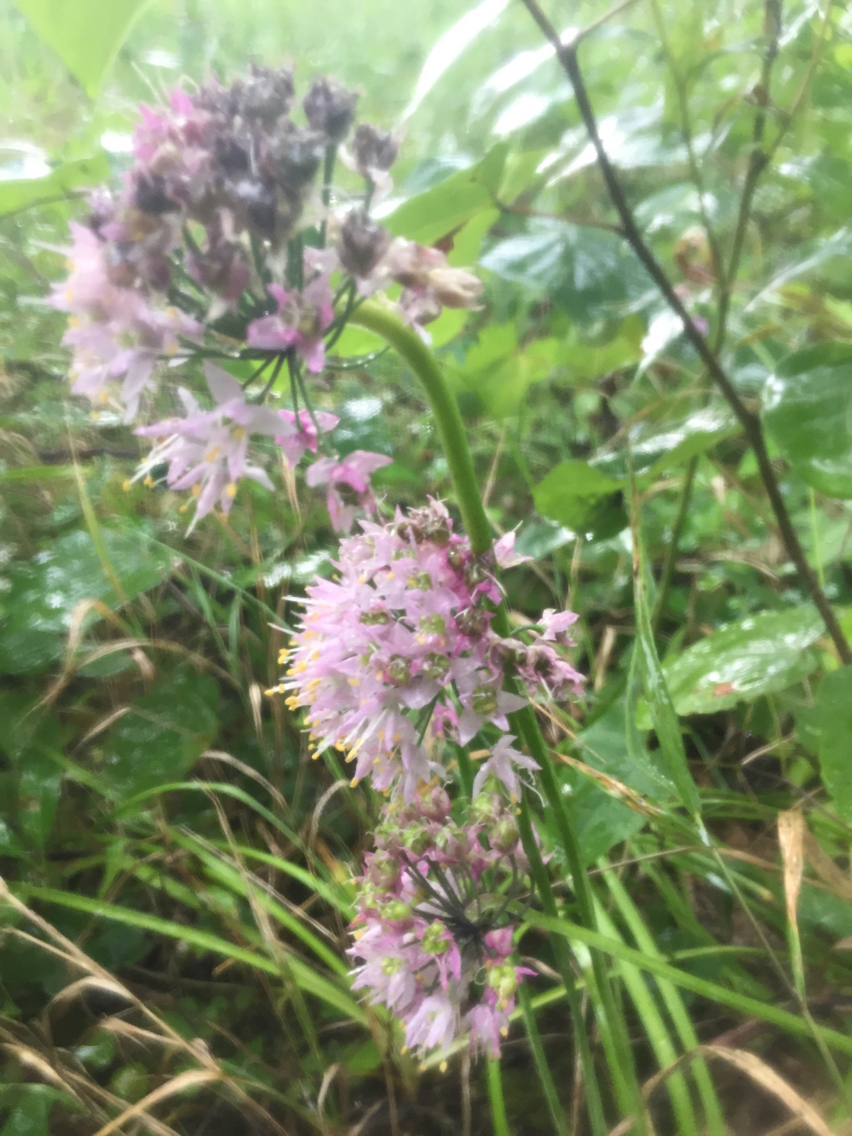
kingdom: Plantae
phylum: Tracheophyta
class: Liliopsida
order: Asparagales
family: Amaryllidaceae
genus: Allium
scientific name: Allium cernuum
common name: Nodding onion
